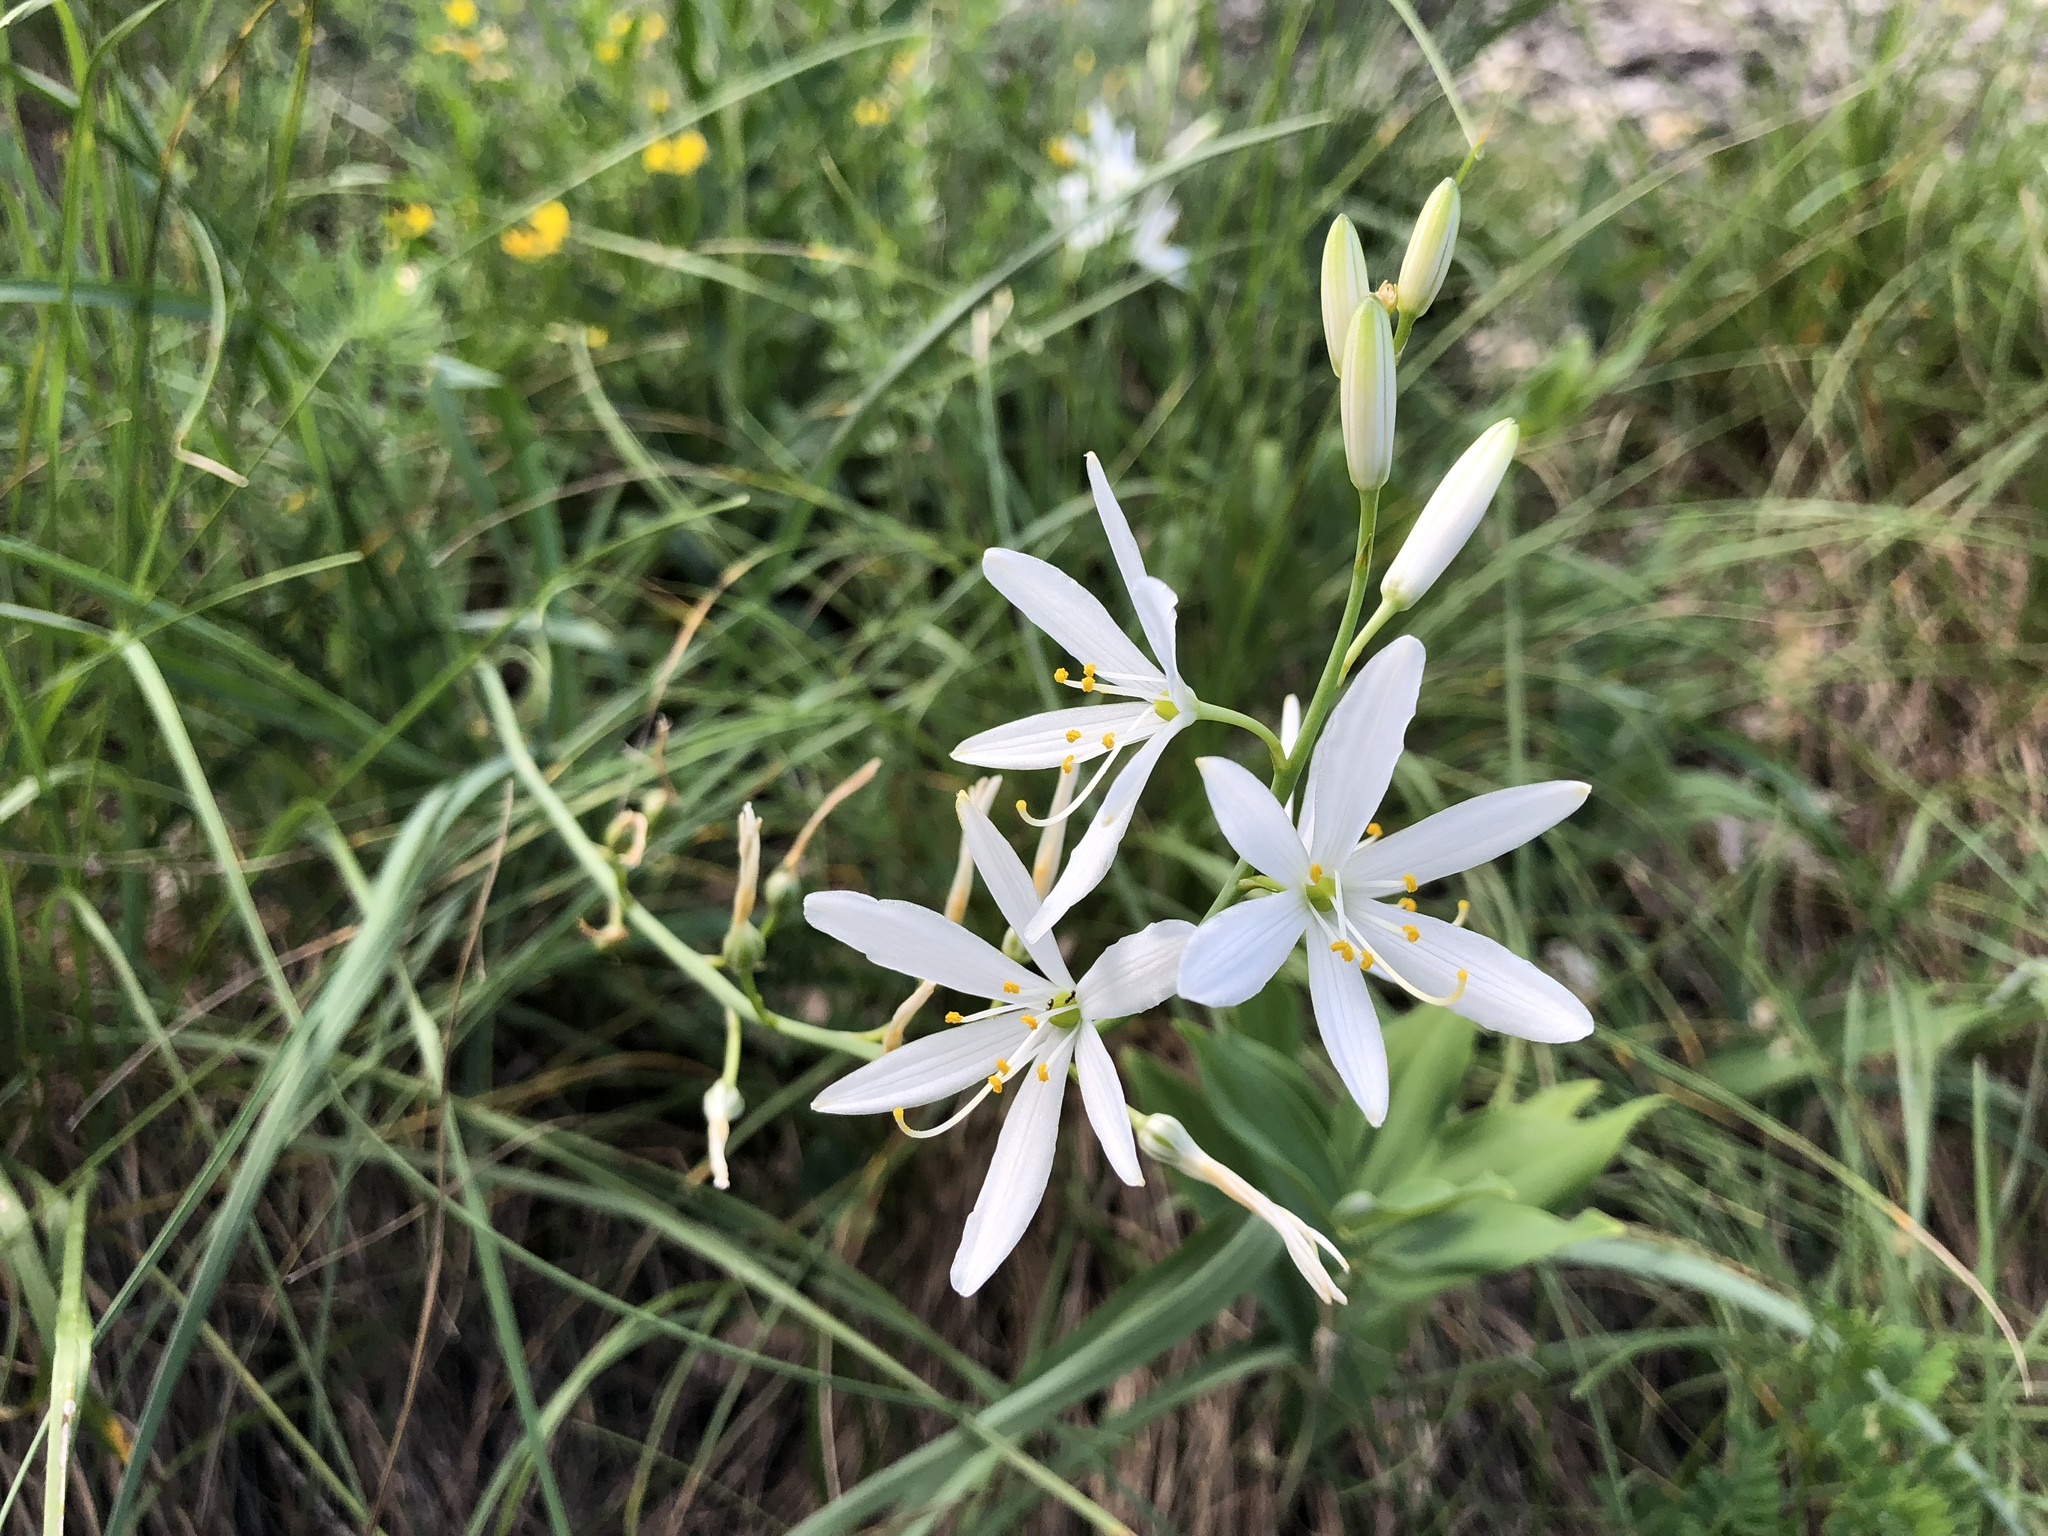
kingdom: Plantae
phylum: Tracheophyta
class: Liliopsida
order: Asparagales
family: Asparagaceae
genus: Anthericum
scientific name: Anthericum liliago
